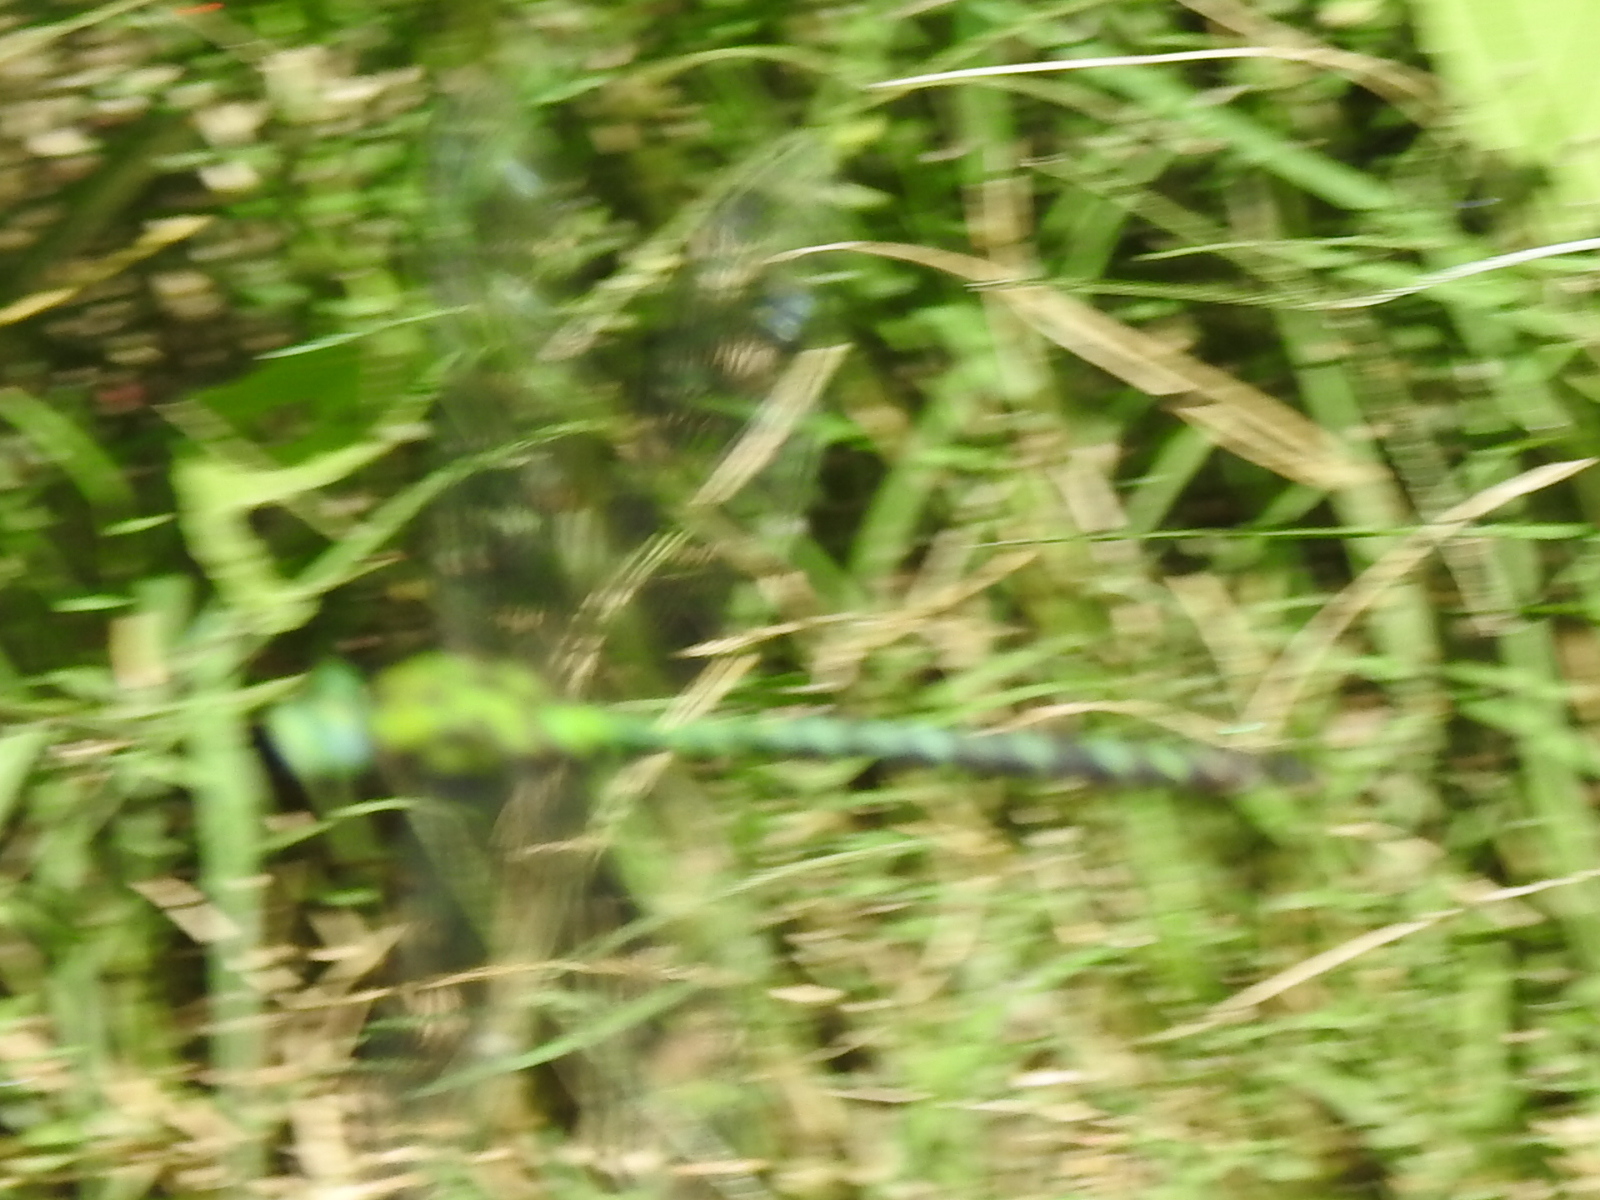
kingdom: Animalia
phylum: Arthropoda
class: Insecta
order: Odonata
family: Aeshnidae
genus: Remartinia
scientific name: Remartinia luteipennis
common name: Malachite darner
